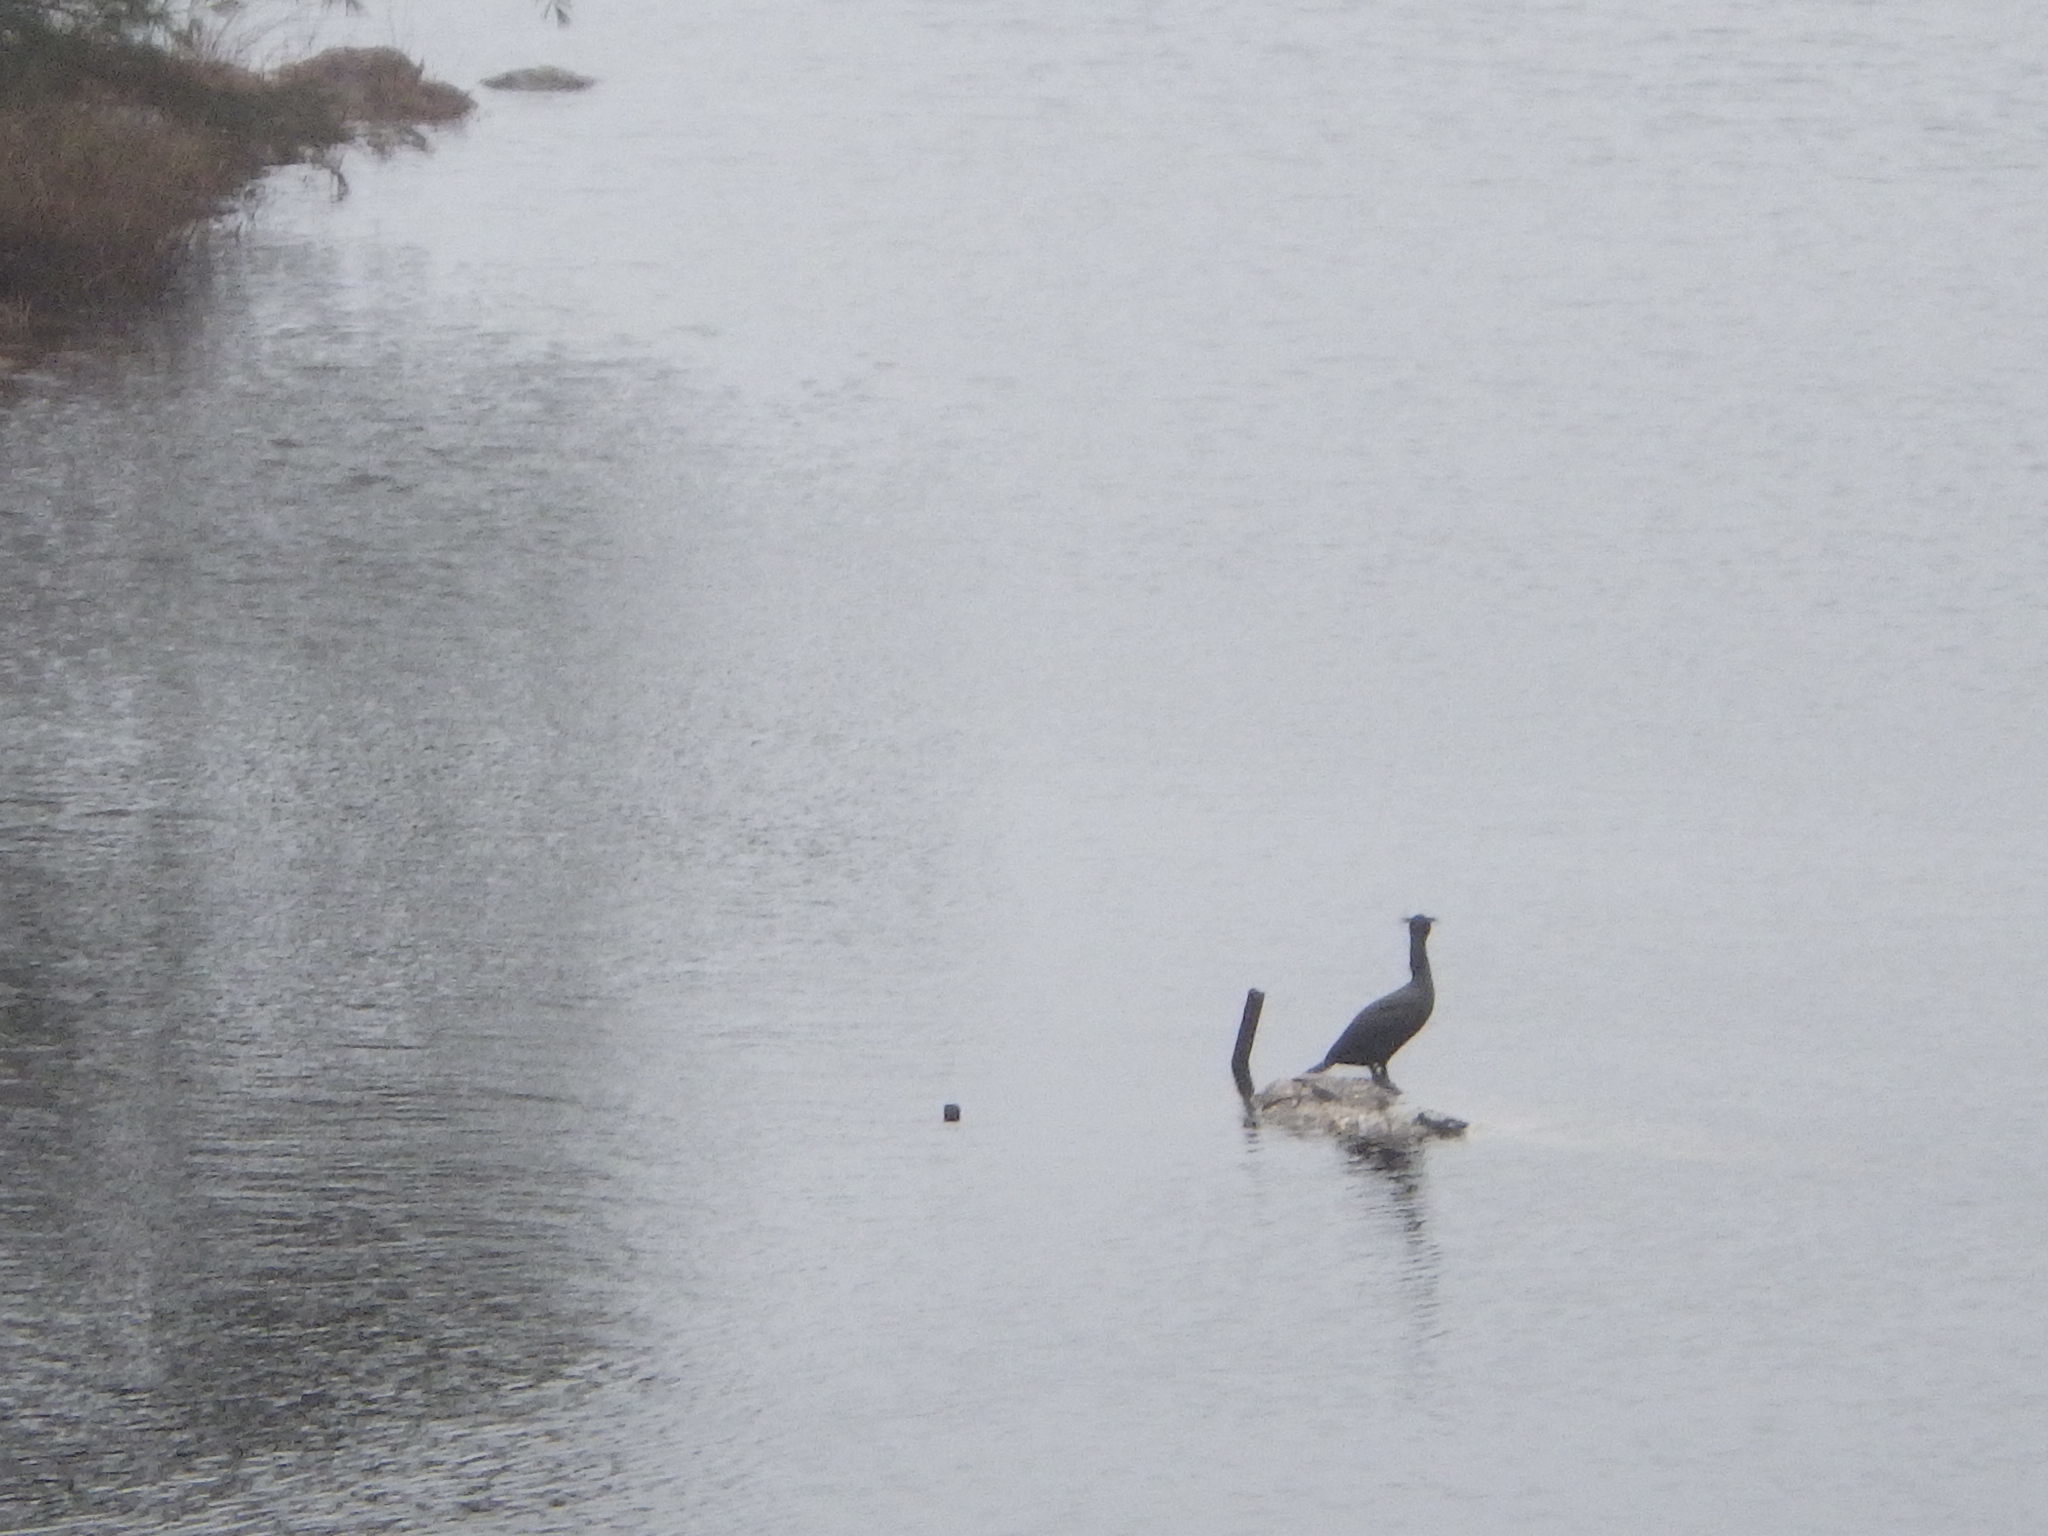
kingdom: Animalia
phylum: Chordata
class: Aves
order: Suliformes
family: Phalacrocoracidae
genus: Phalacrocorax
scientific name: Phalacrocorax auritus
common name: Double-crested cormorant
